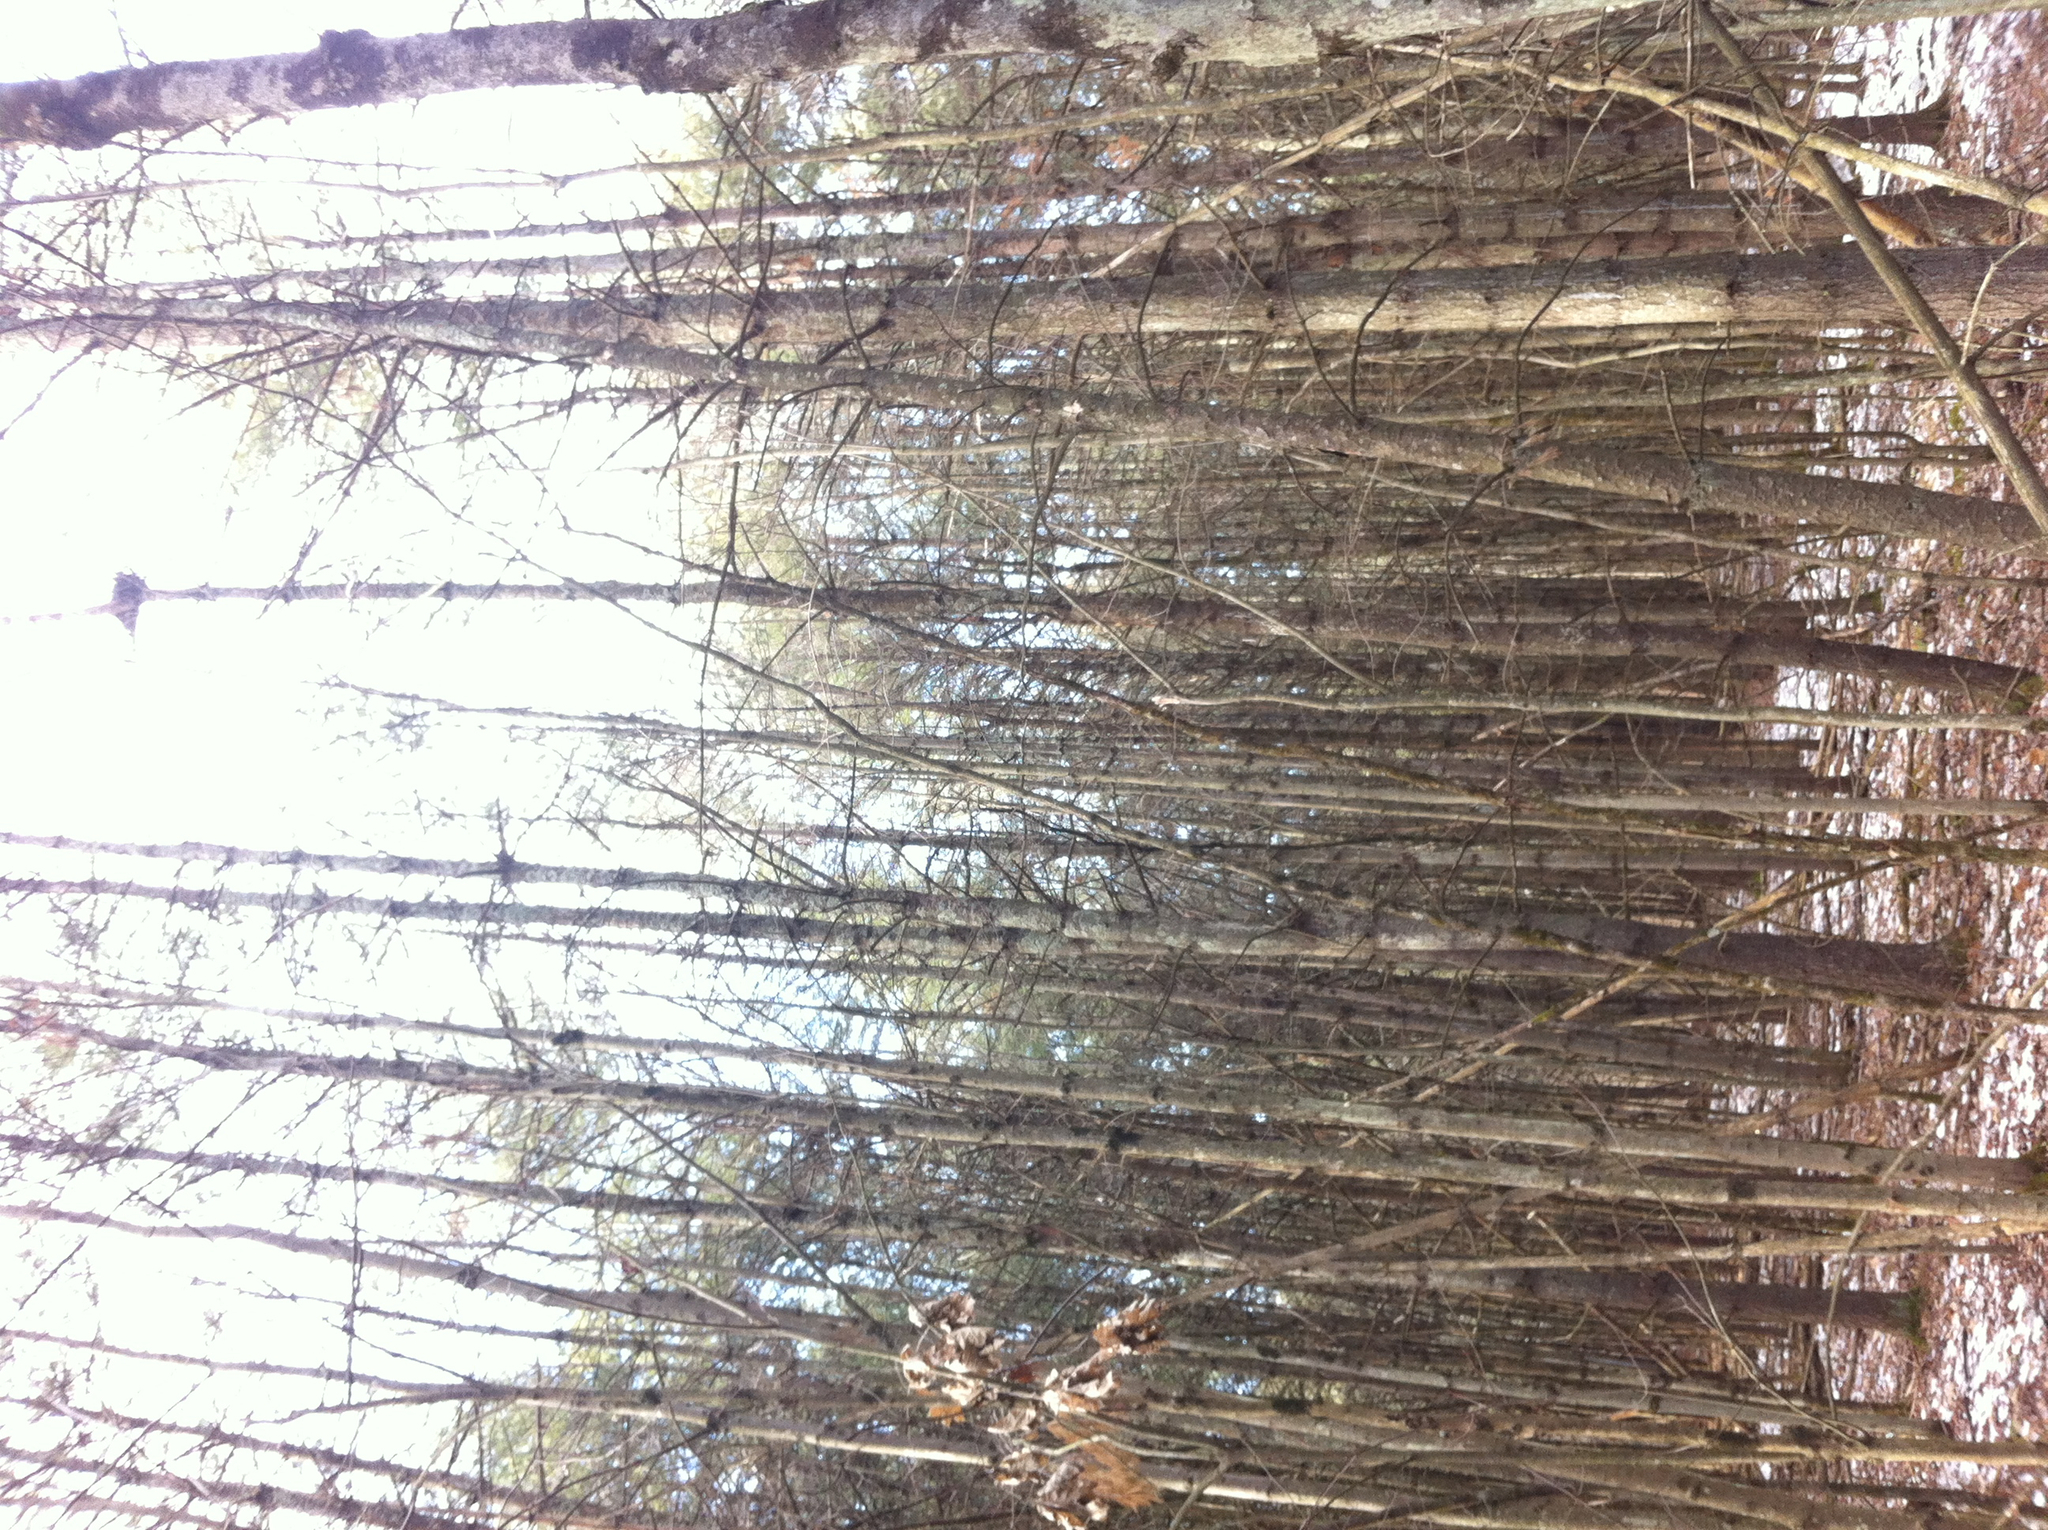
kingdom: Plantae
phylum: Tracheophyta
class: Pinopsida
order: Pinales
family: Pinaceae
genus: Pinus
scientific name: Pinus strobus
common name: Weymouth pine
